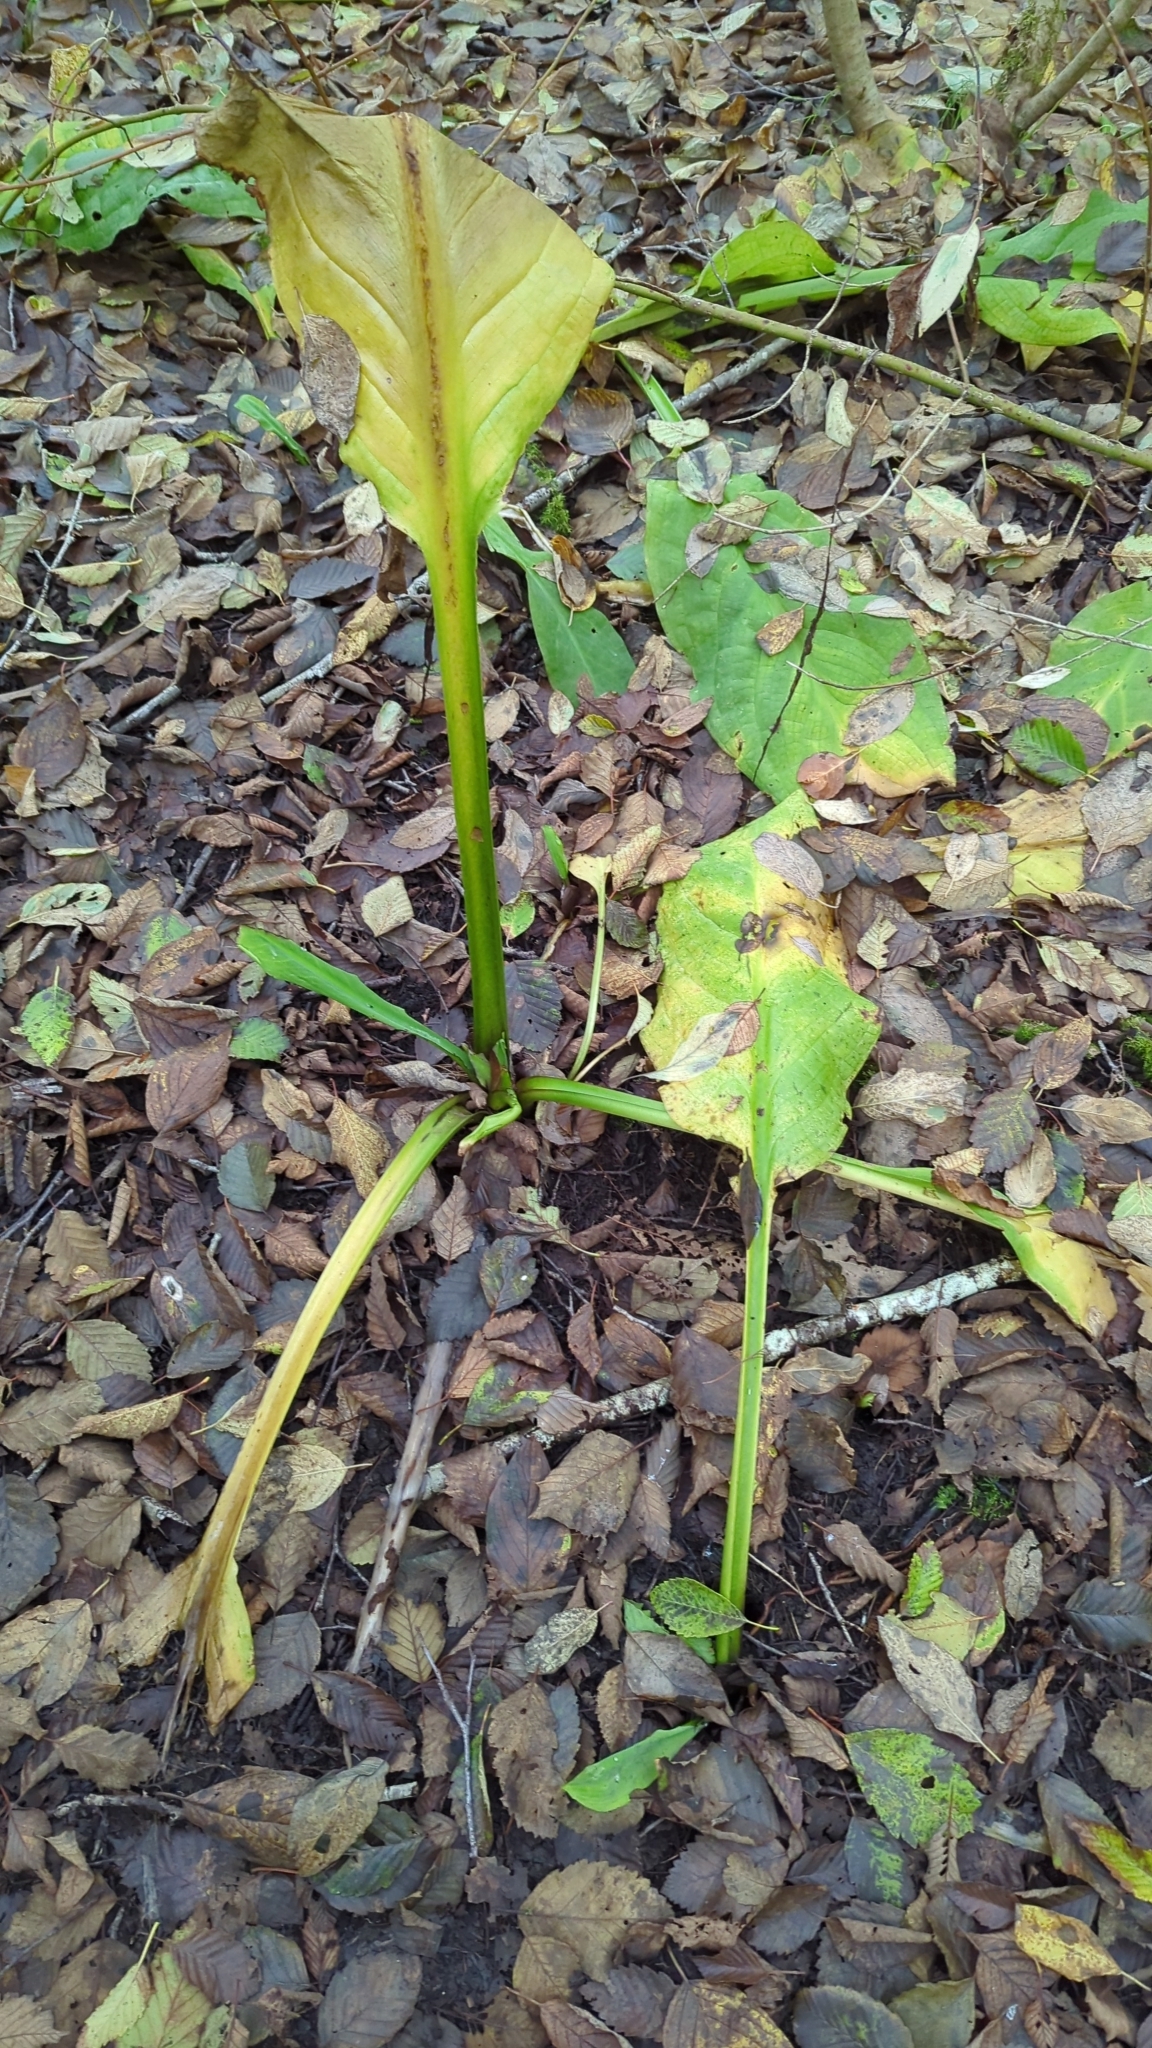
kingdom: Plantae
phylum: Tracheophyta
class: Liliopsida
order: Alismatales
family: Araceae
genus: Lysichiton
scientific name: Lysichiton americanus
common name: American skunk cabbage
